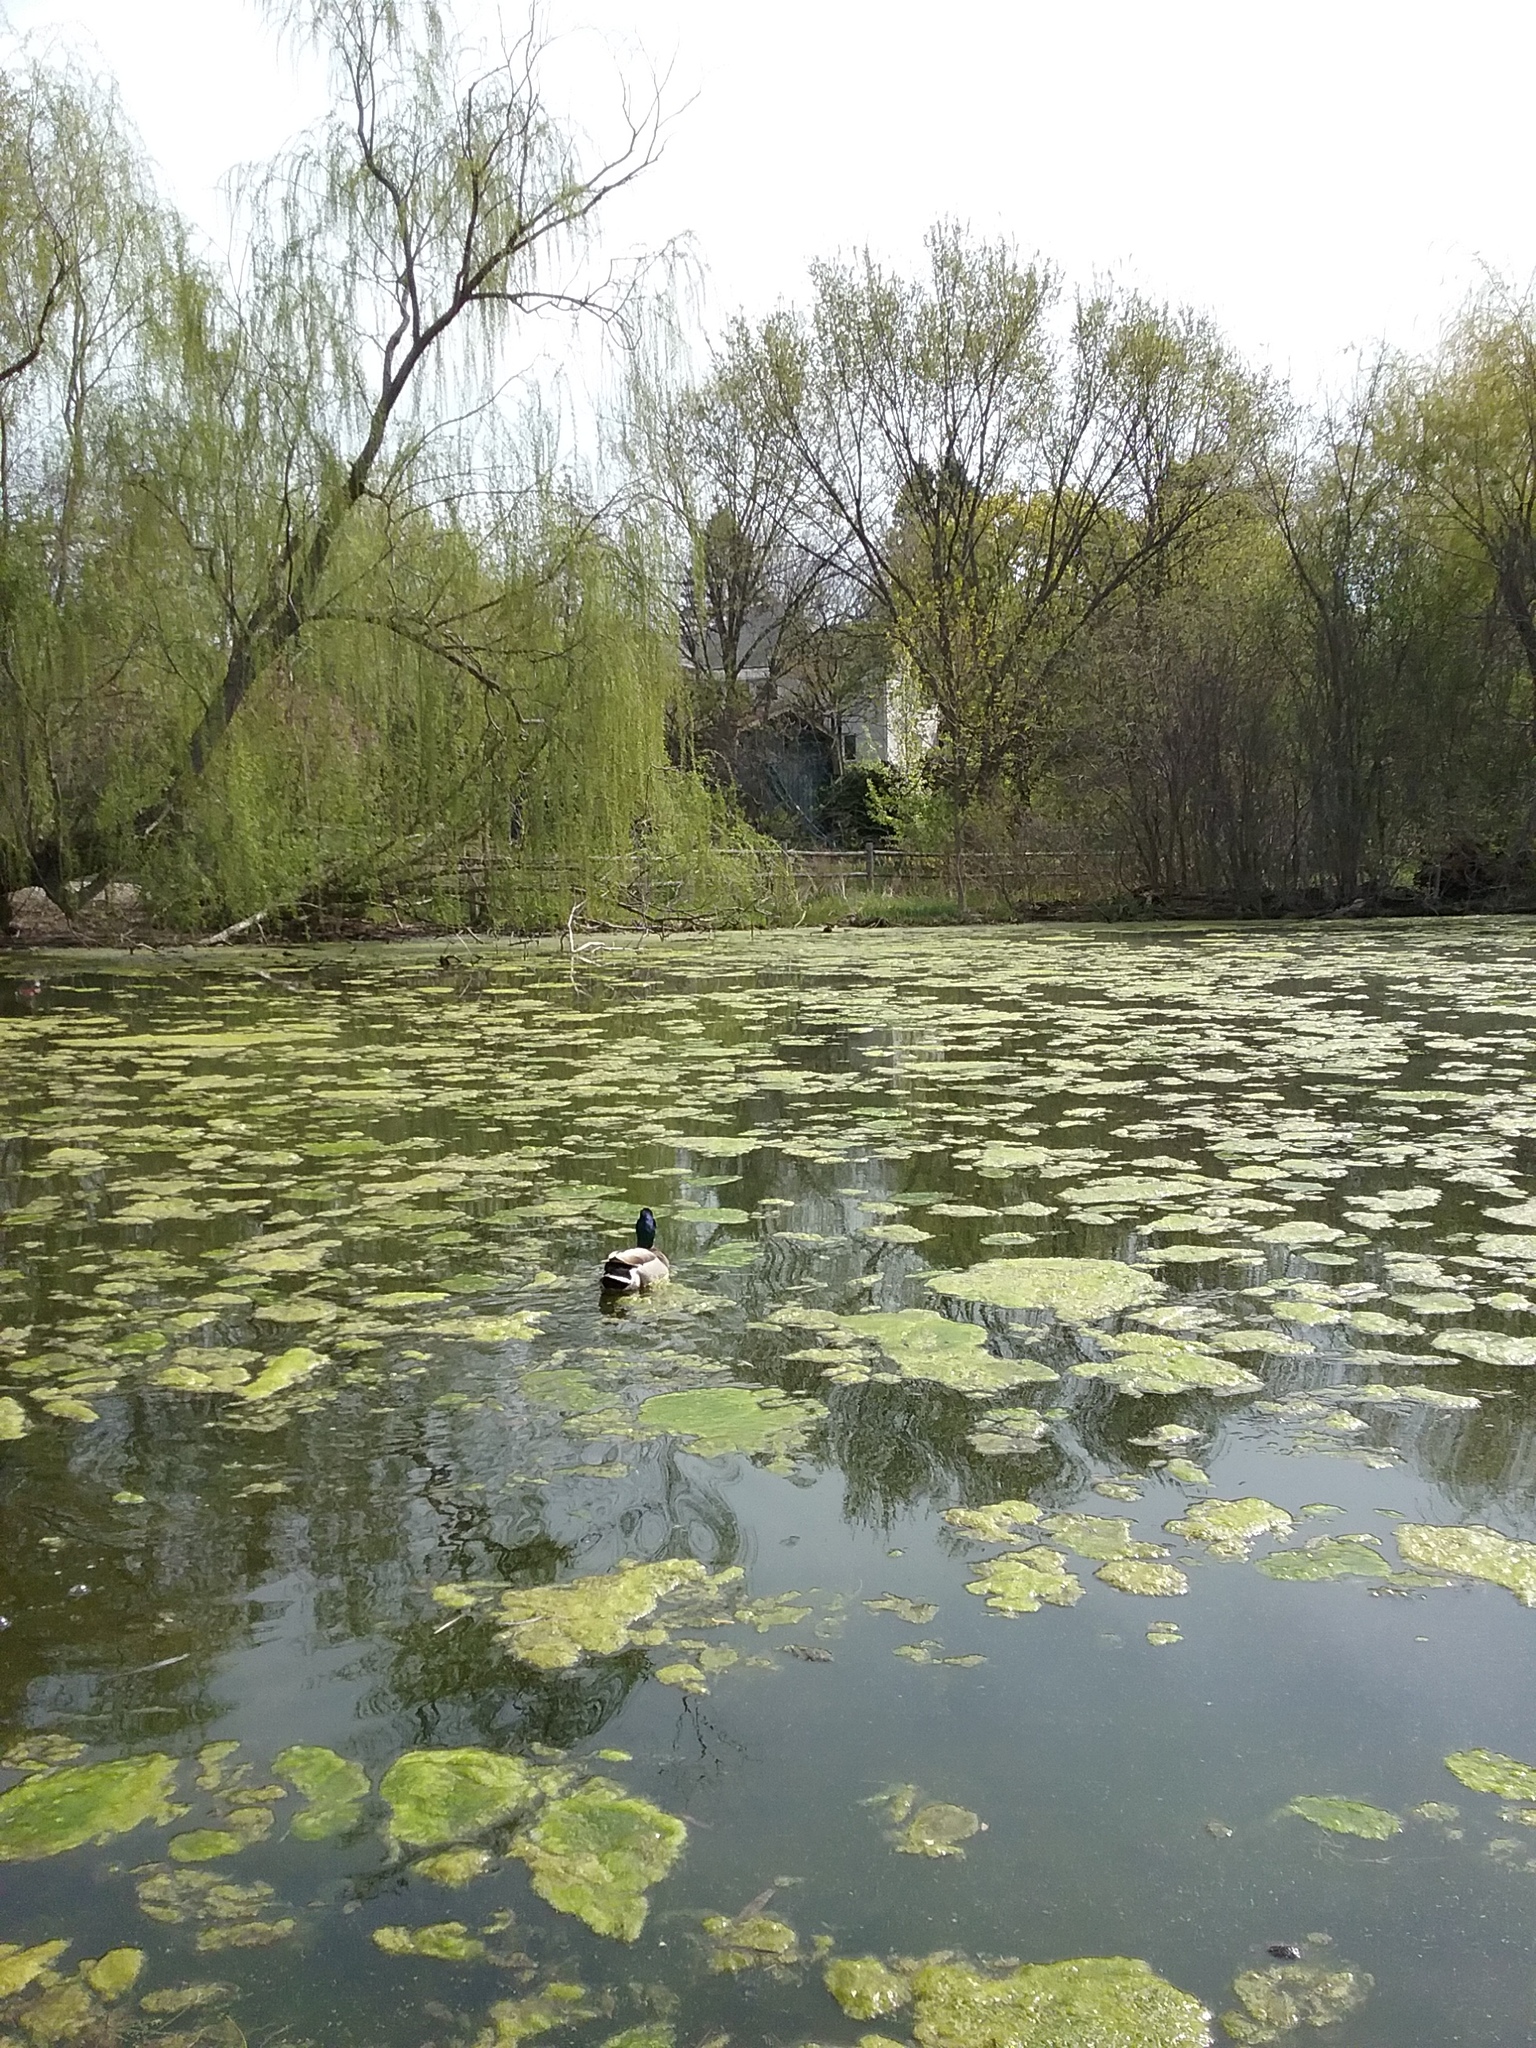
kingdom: Animalia
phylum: Chordata
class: Aves
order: Anseriformes
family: Anatidae
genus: Anas
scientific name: Anas platyrhynchos
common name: Mallard
